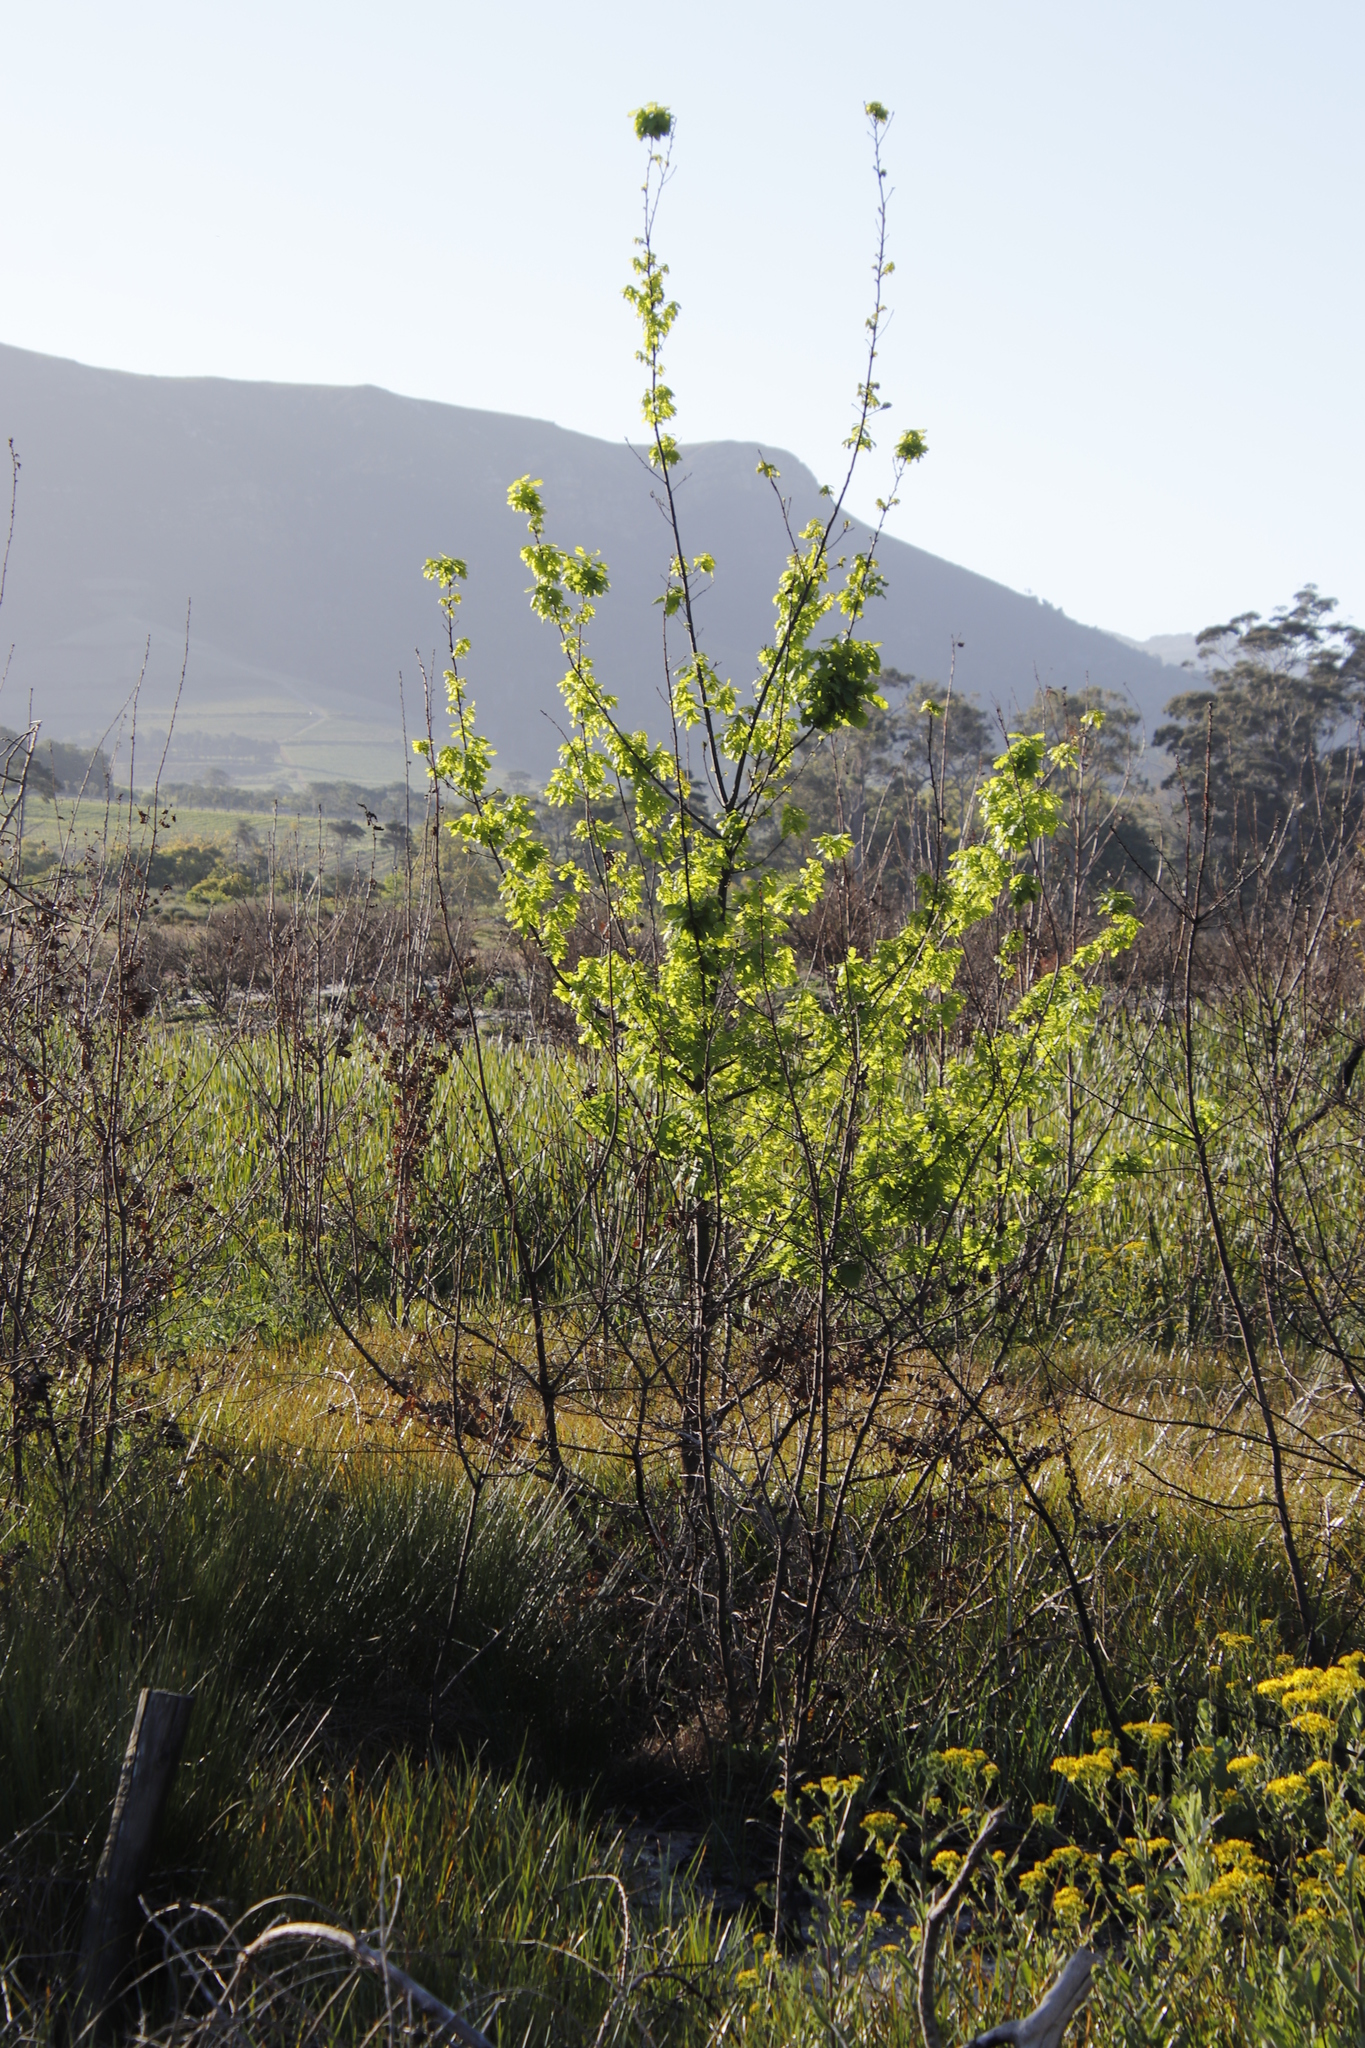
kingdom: Plantae
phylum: Tracheophyta
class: Magnoliopsida
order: Fagales
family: Fagaceae
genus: Quercus
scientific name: Quercus robur
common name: Pedunculate oak
